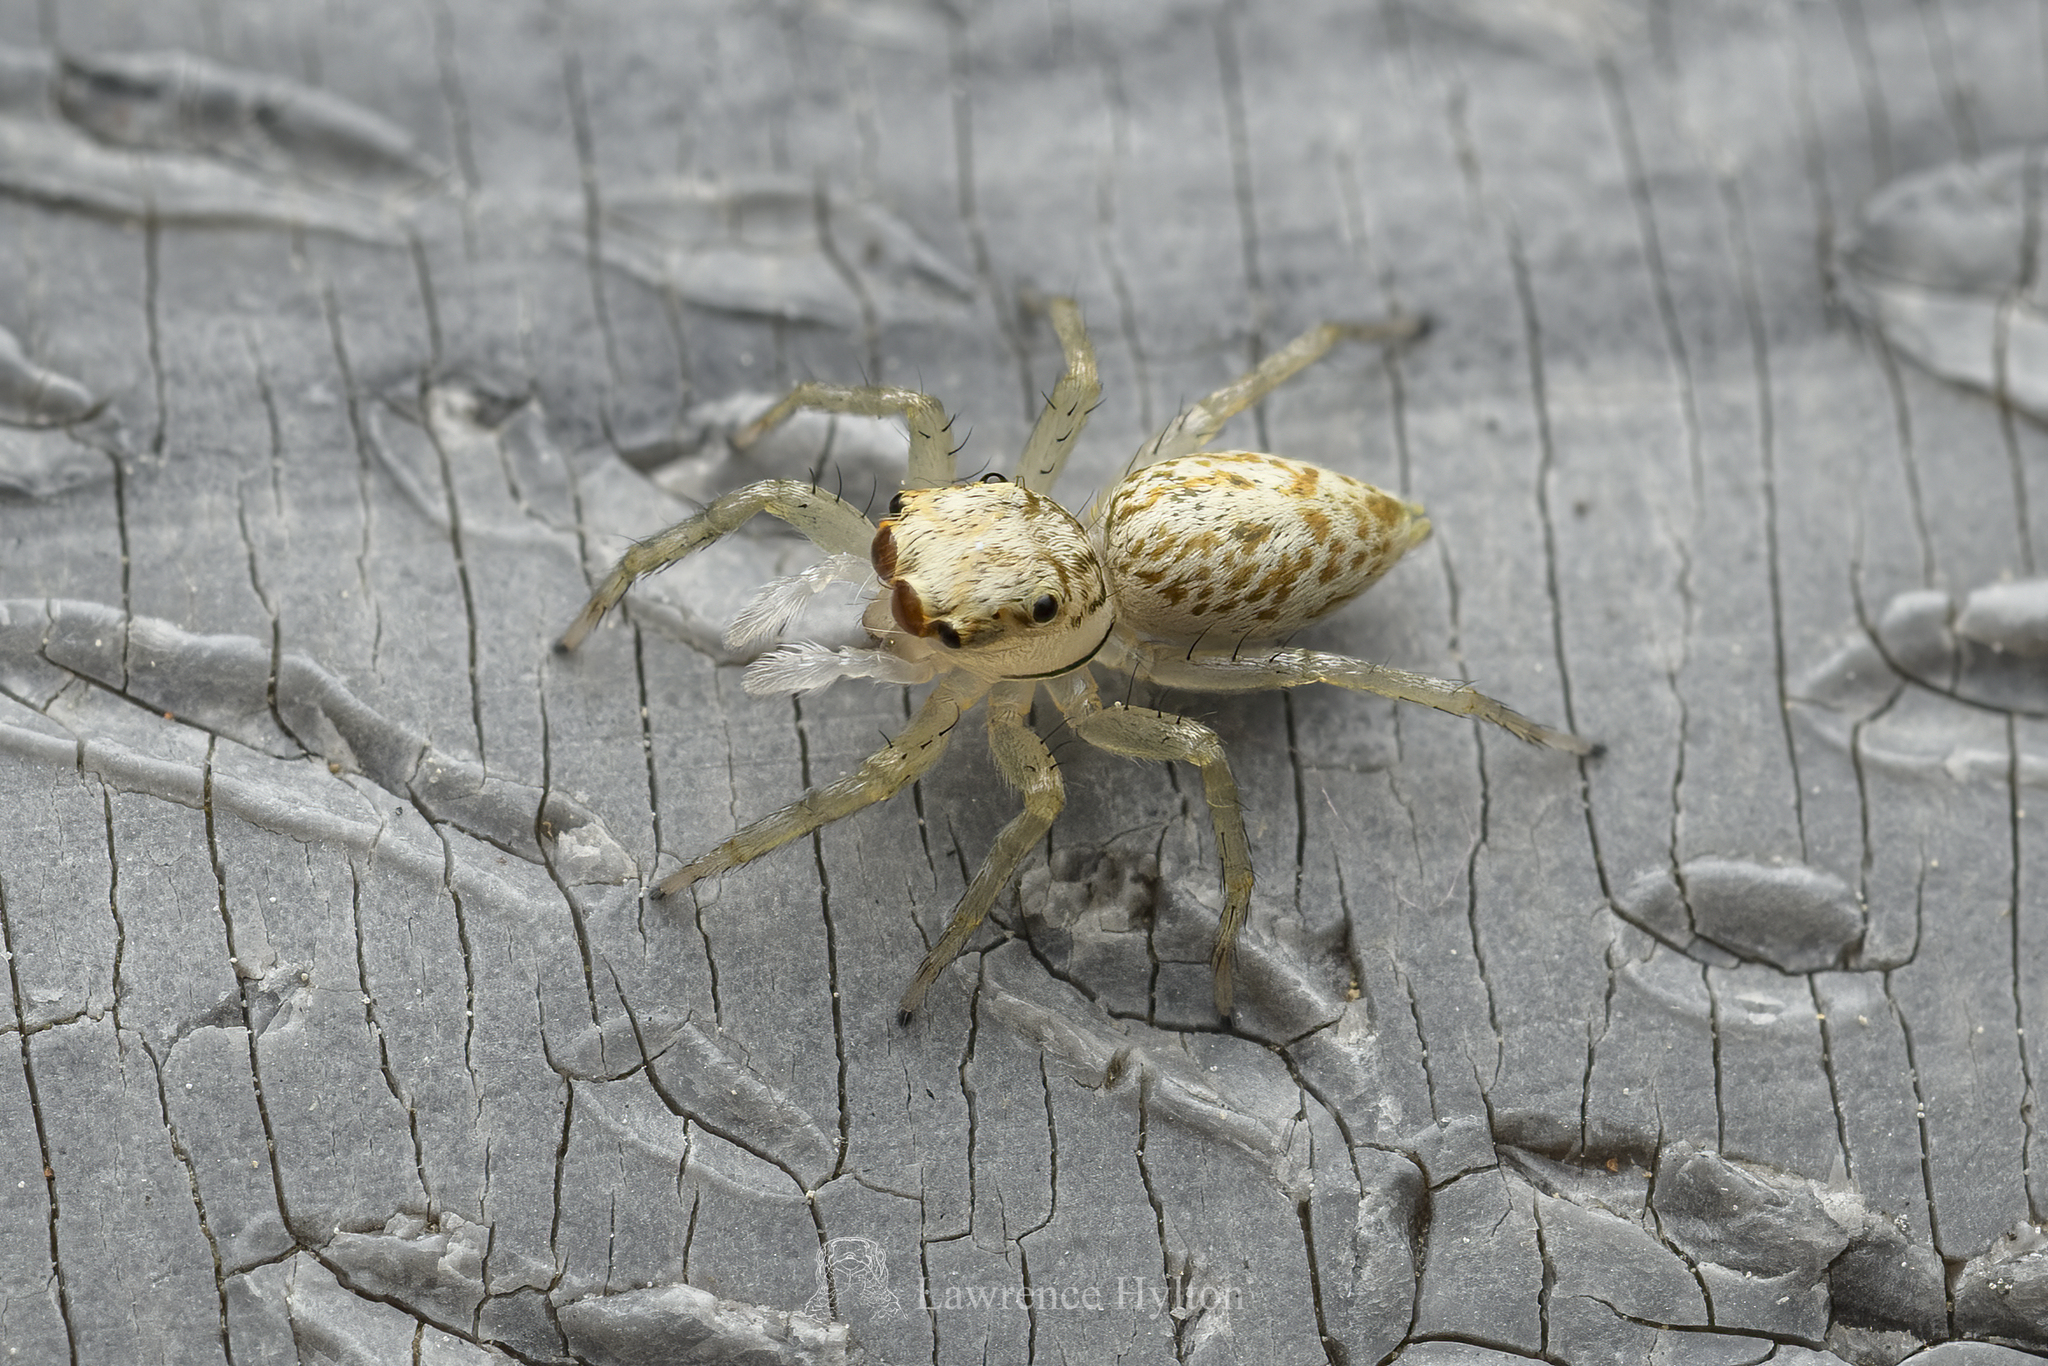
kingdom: Animalia
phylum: Arthropoda
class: Arachnida
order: Araneae
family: Salticidae
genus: Phintelloides
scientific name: Phintelloides versicolor
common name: Jumping spider
